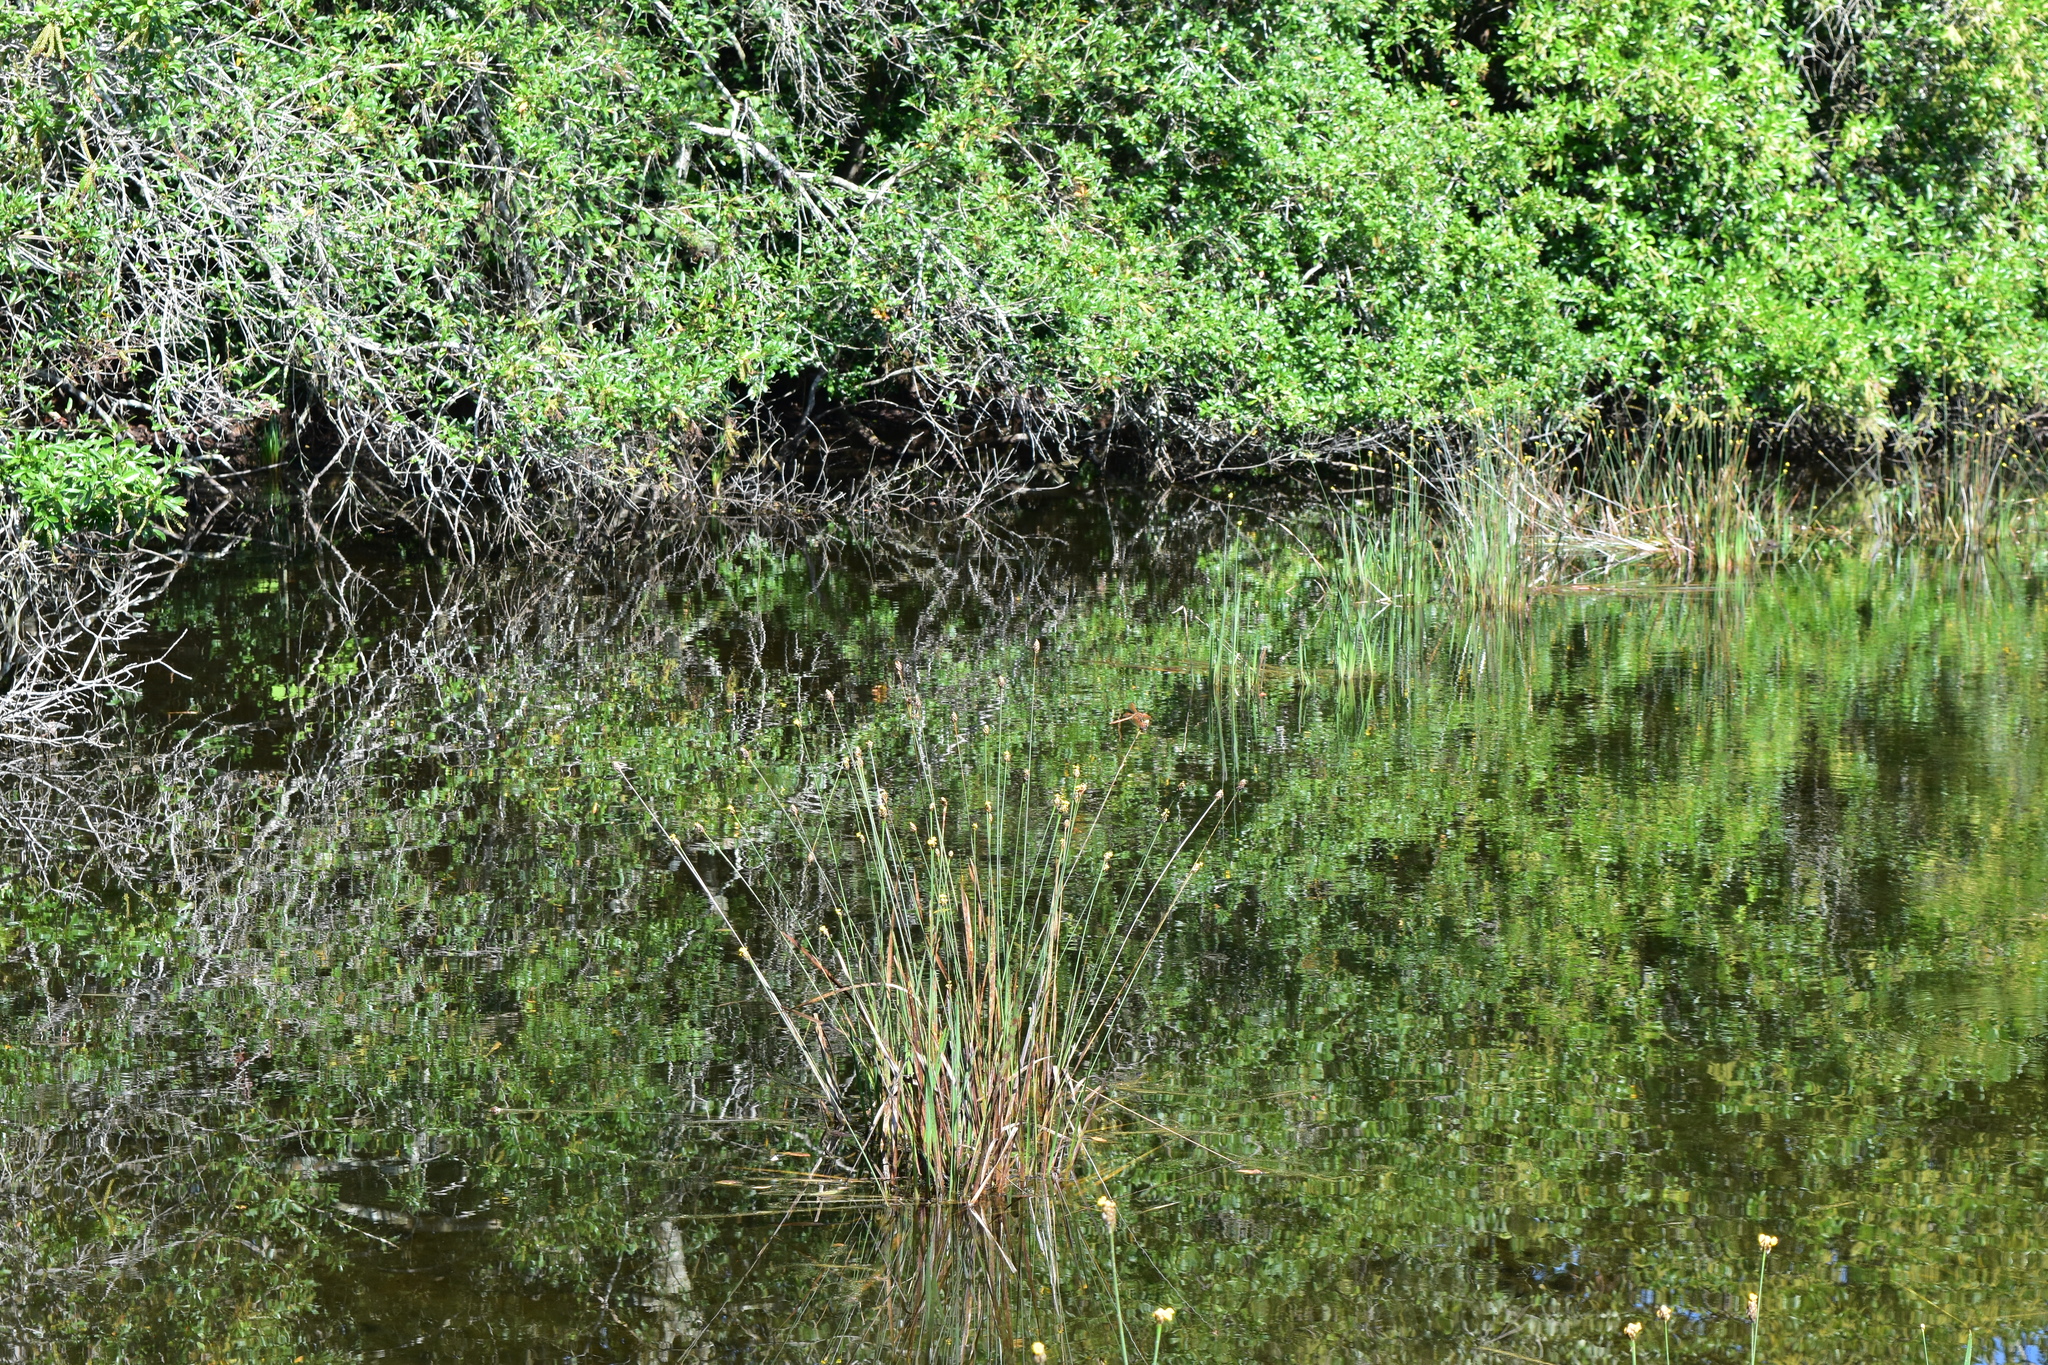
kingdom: Plantae
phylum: Tracheophyta
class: Liliopsida
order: Poales
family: Xyridaceae
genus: Xyris
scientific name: Xyris fimbriata
